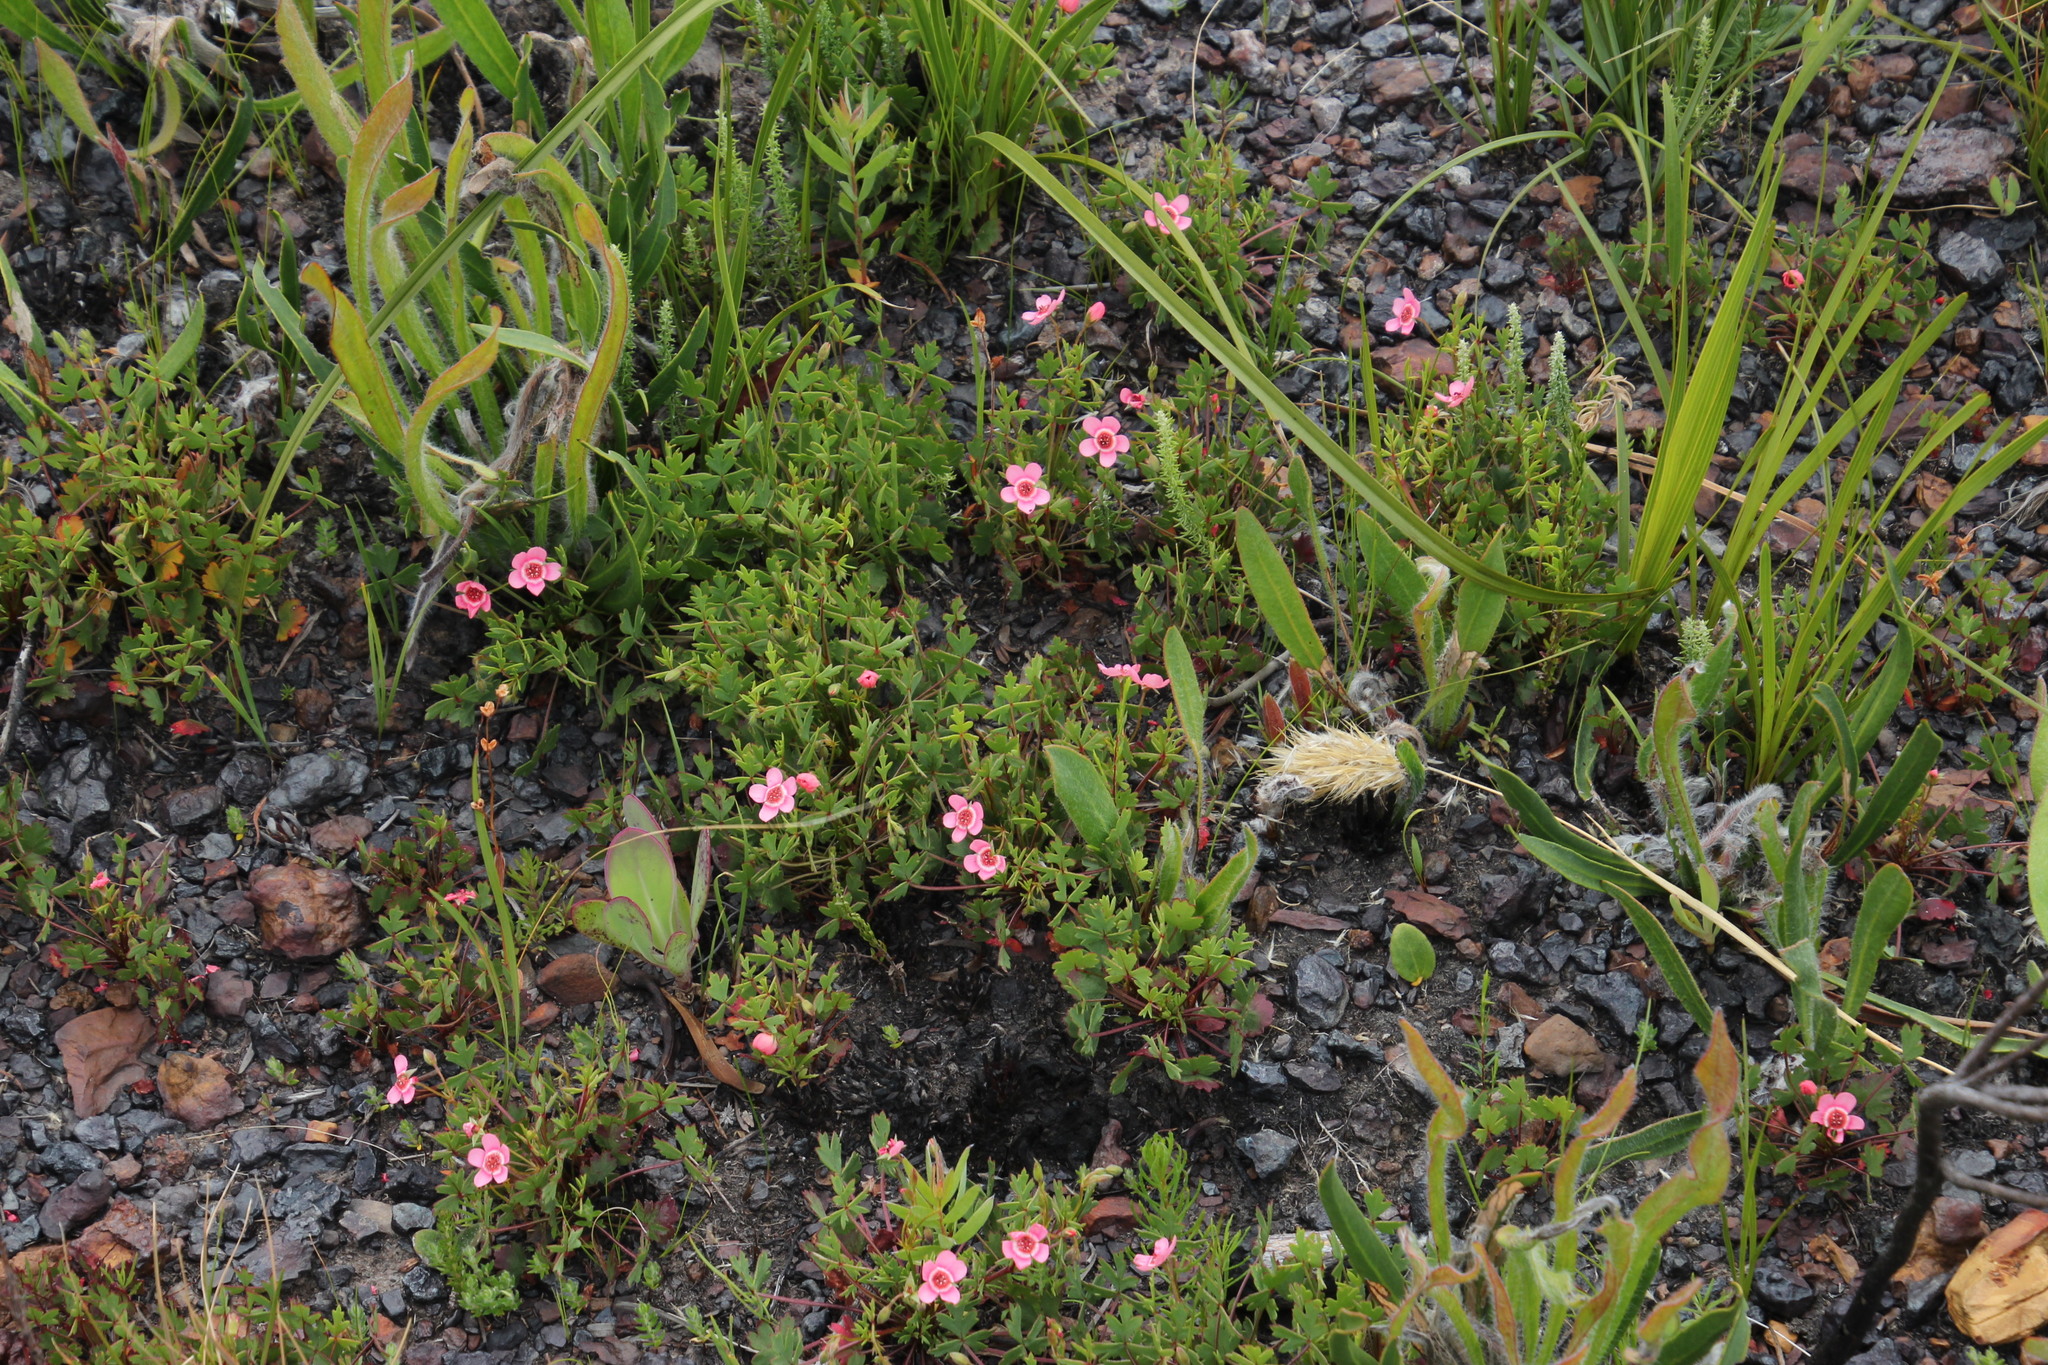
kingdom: Plantae
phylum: Tracheophyta
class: Magnoliopsida
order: Geraniales
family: Geraniaceae
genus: Pelargonium
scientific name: Pelargonium incarnatum
